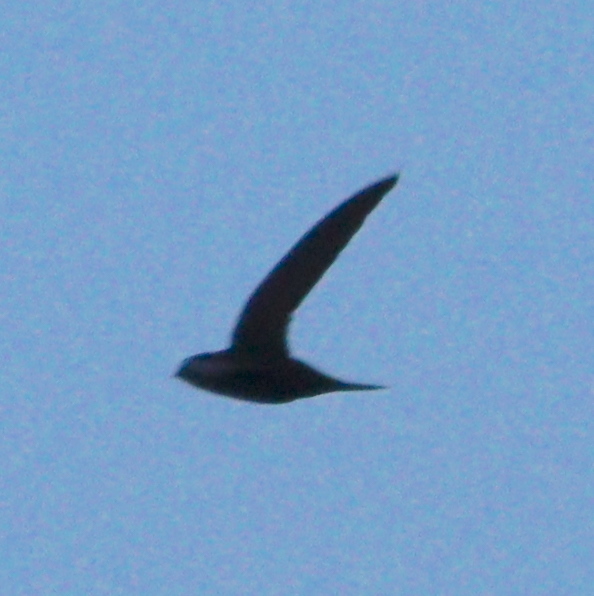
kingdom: Animalia
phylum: Chordata
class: Aves
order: Apodiformes
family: Apodidae
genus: Apus
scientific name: Apus apus
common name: Common swift
